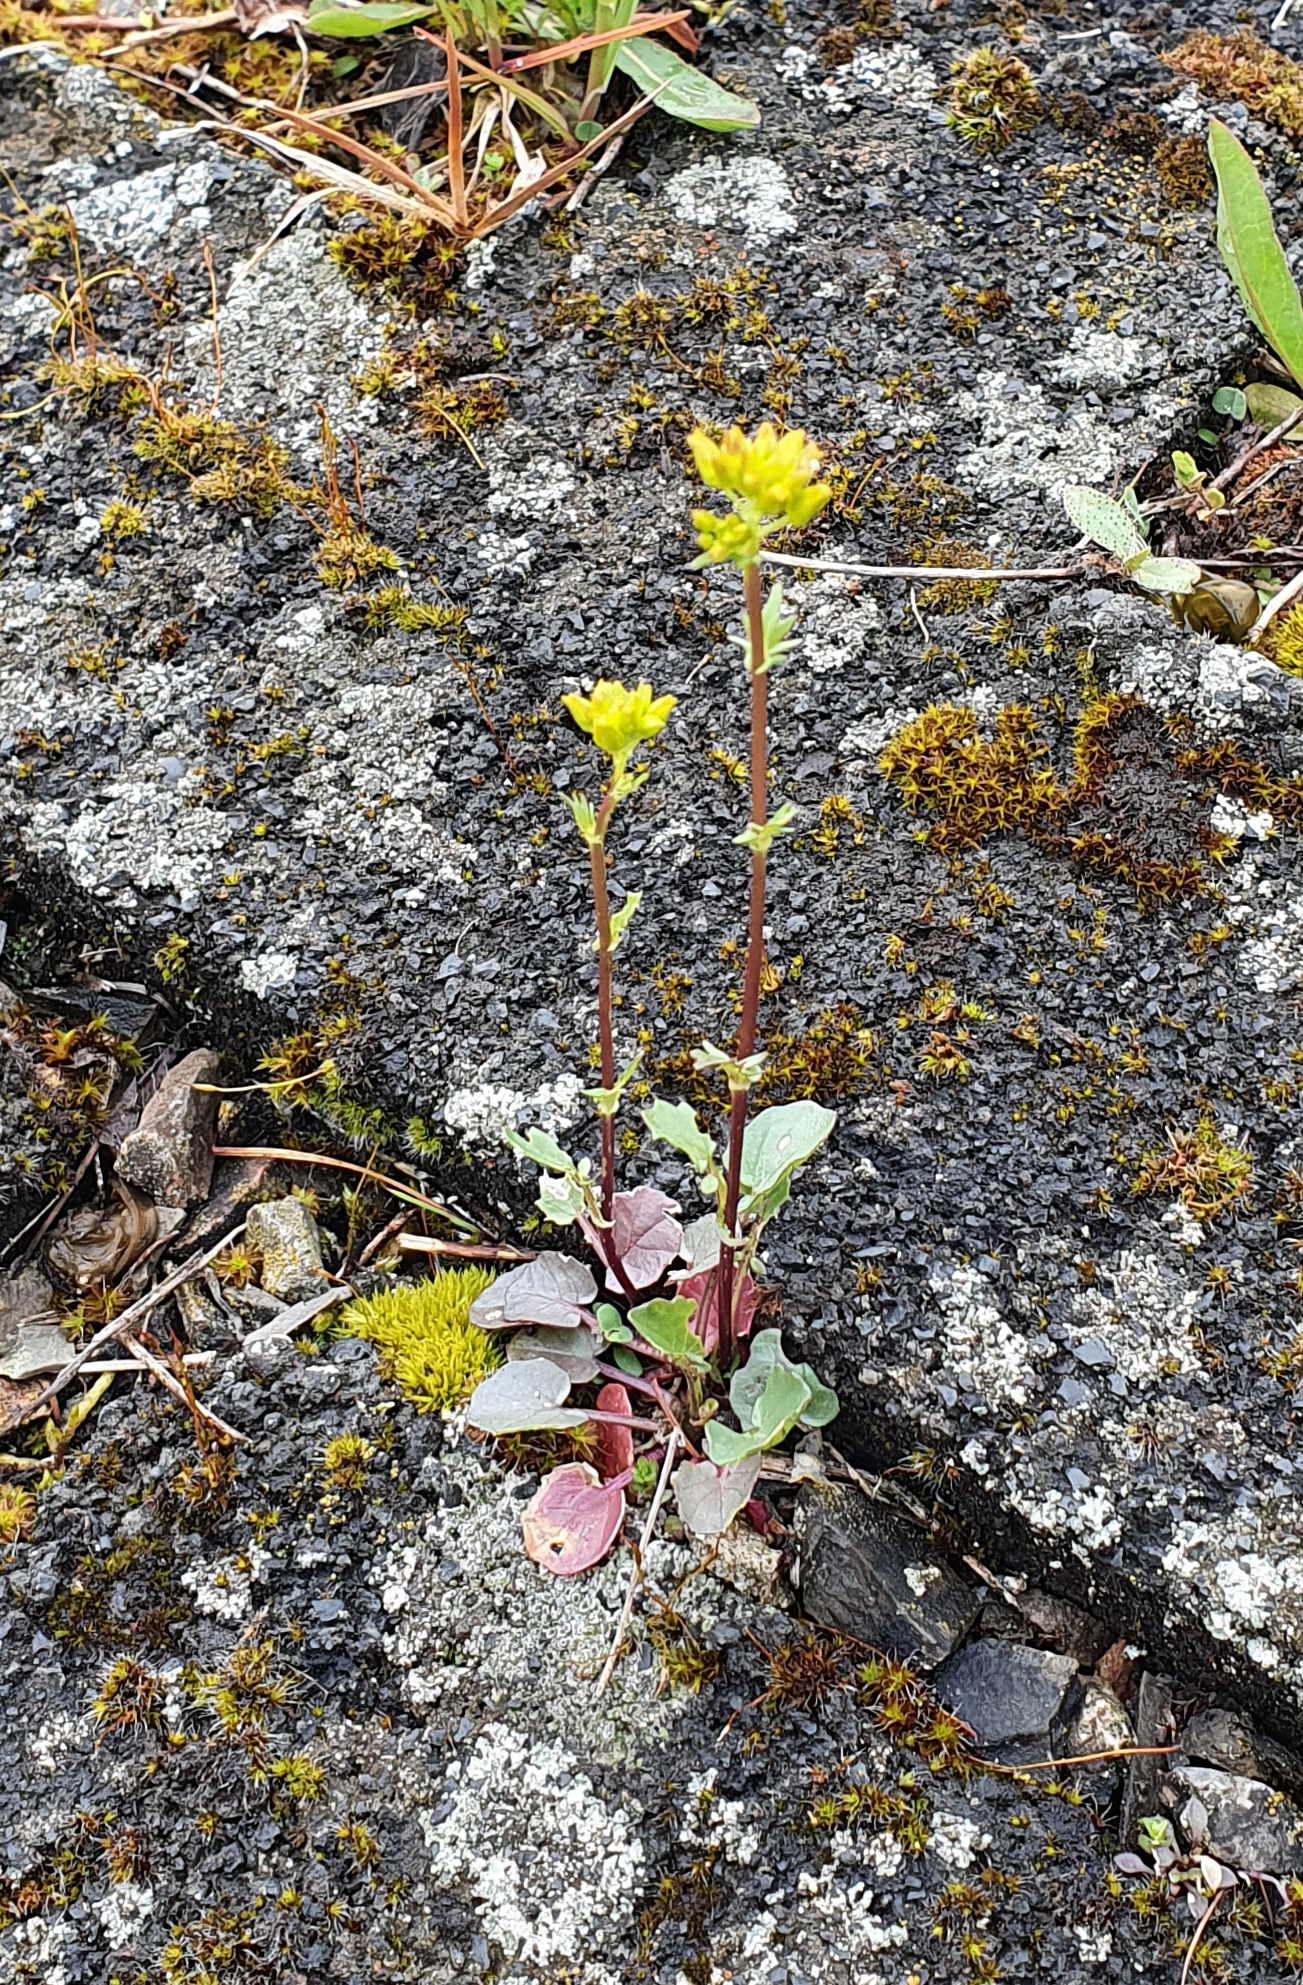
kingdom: Plantae
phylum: Tracheophyta
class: Magnoliopsida
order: Brassicales
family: Brassicaceae
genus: Barbarea
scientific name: Barbarea vulgaris
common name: Cressy-greens
